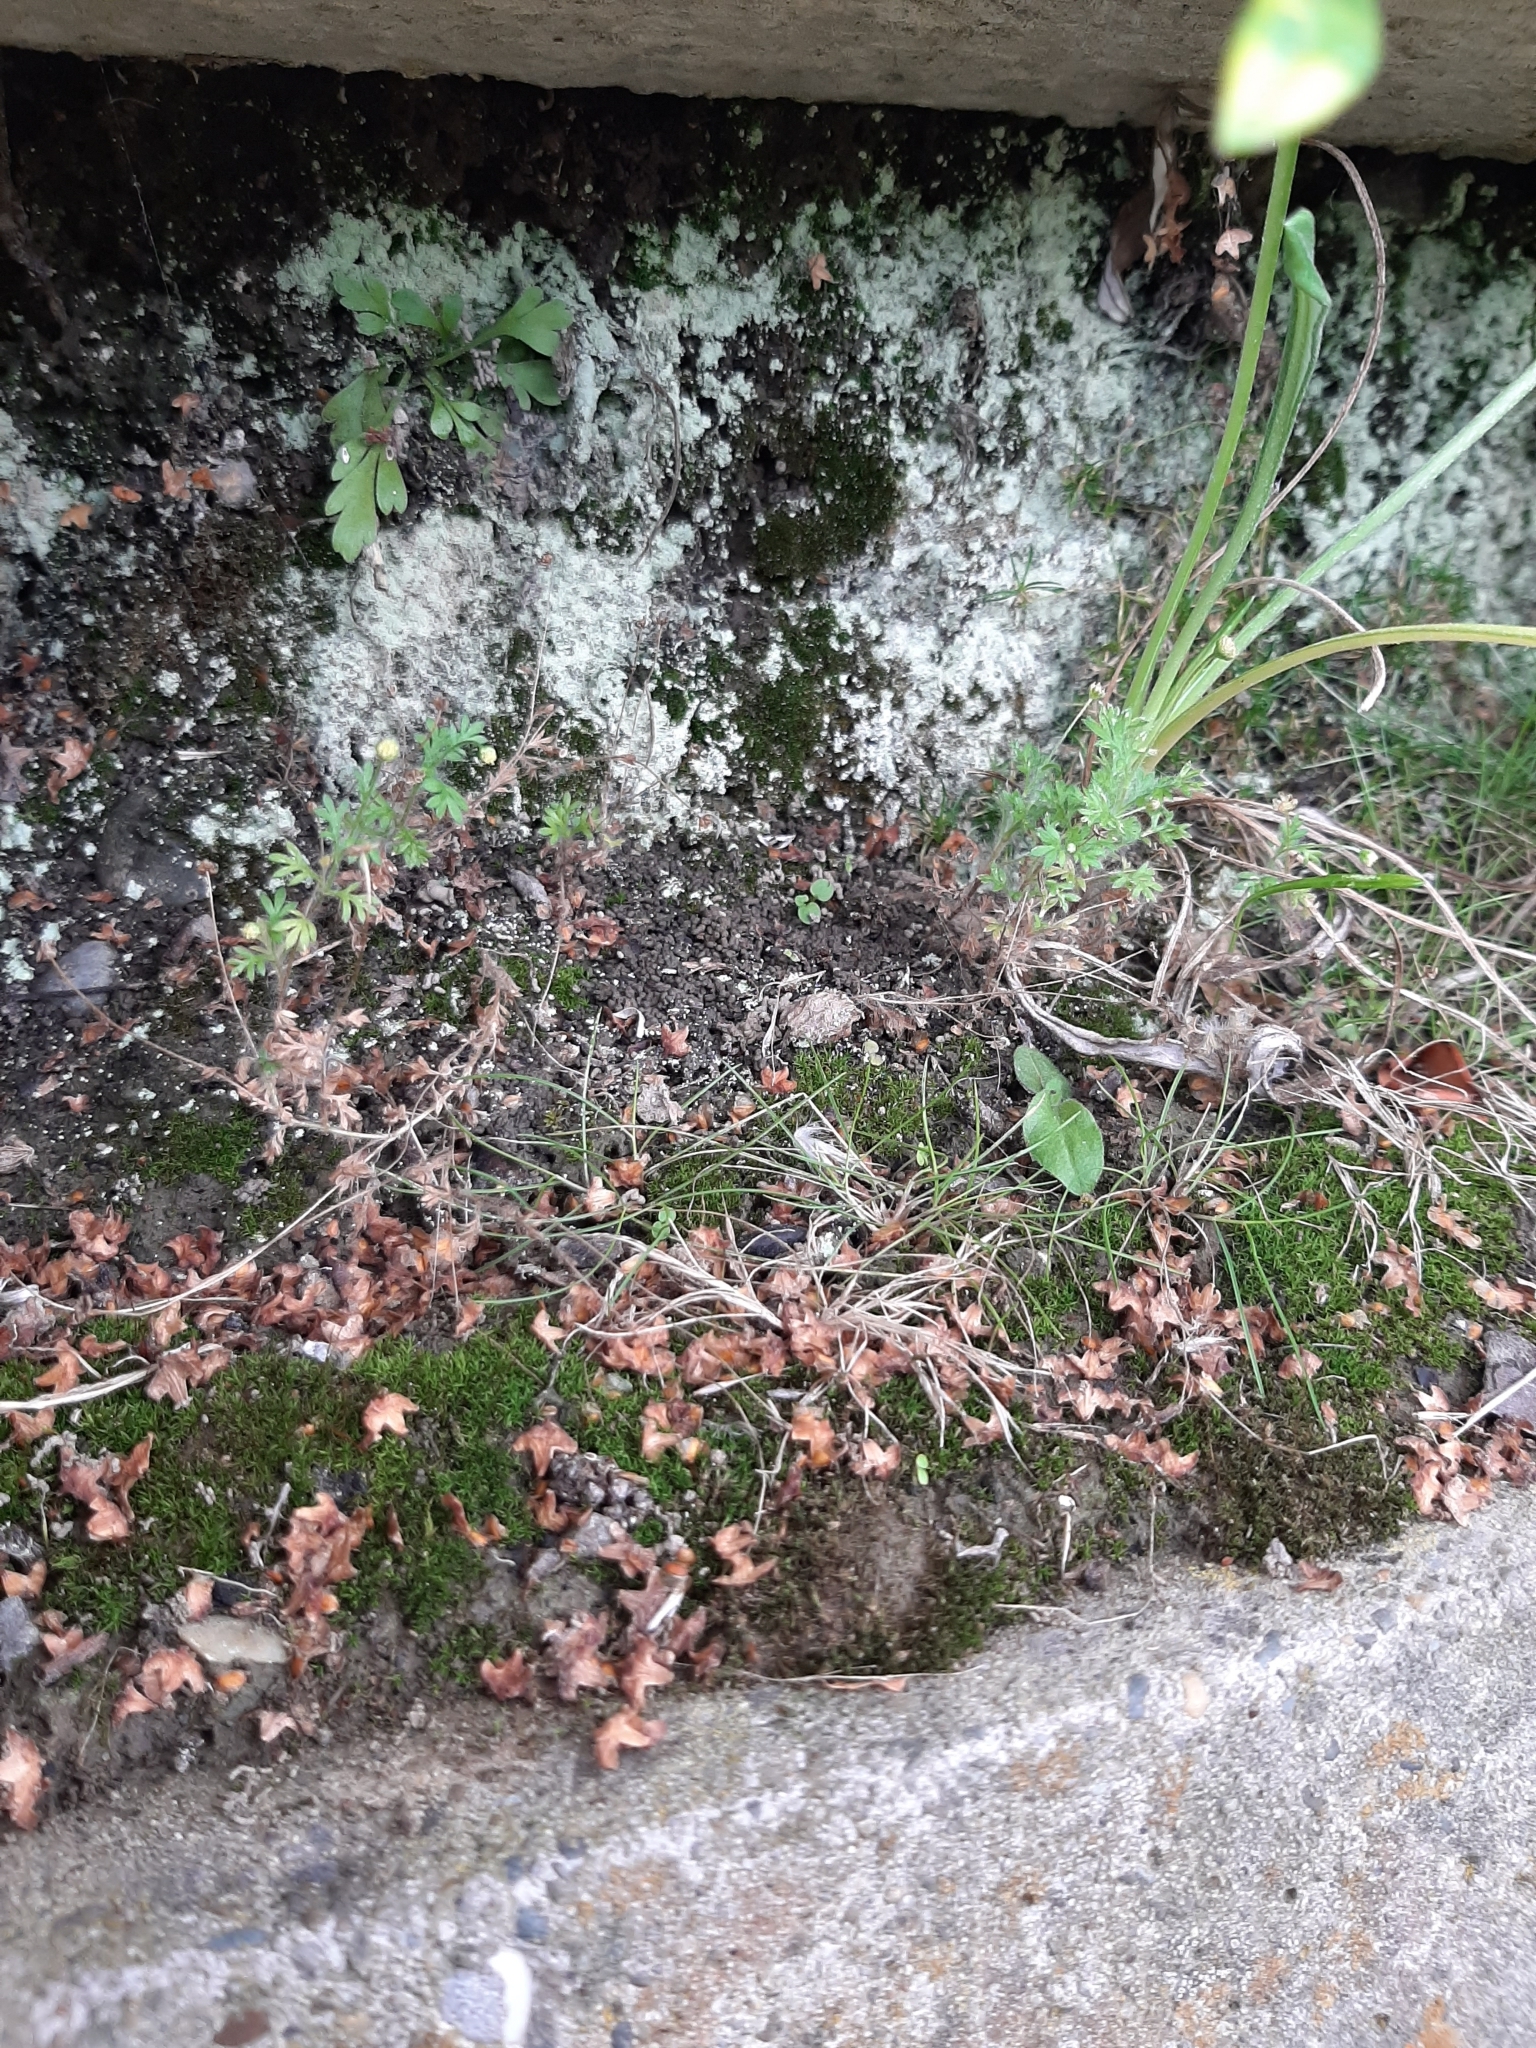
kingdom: Plantae
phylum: Tracheophyta
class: Magnoliopsida
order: Asterales
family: Asteraceae
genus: Cotula
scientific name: Cotula australis
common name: Australian waterbuttons
